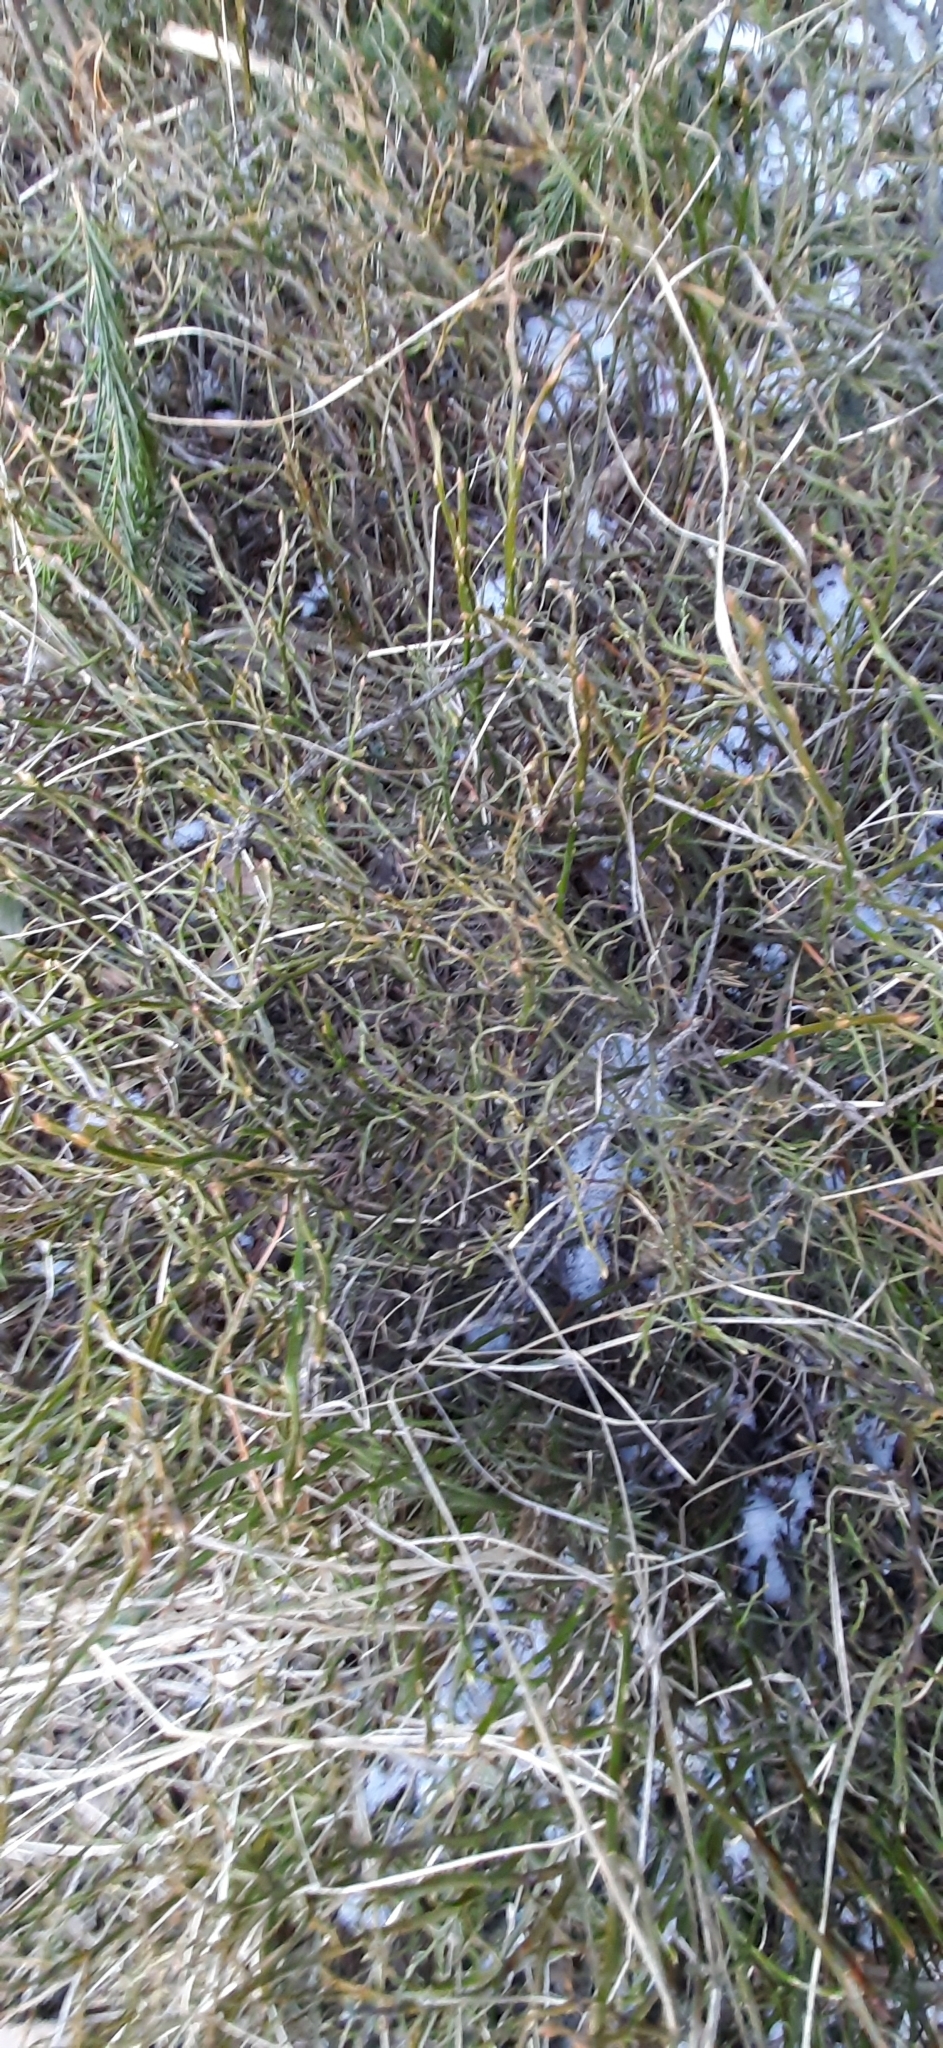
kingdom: Plantae
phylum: Tracheophyta
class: Magnoliopsida
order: Ericales
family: Ericaceae
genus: Vaccinium
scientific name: Vaccinium myrtillus
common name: Bilberry
